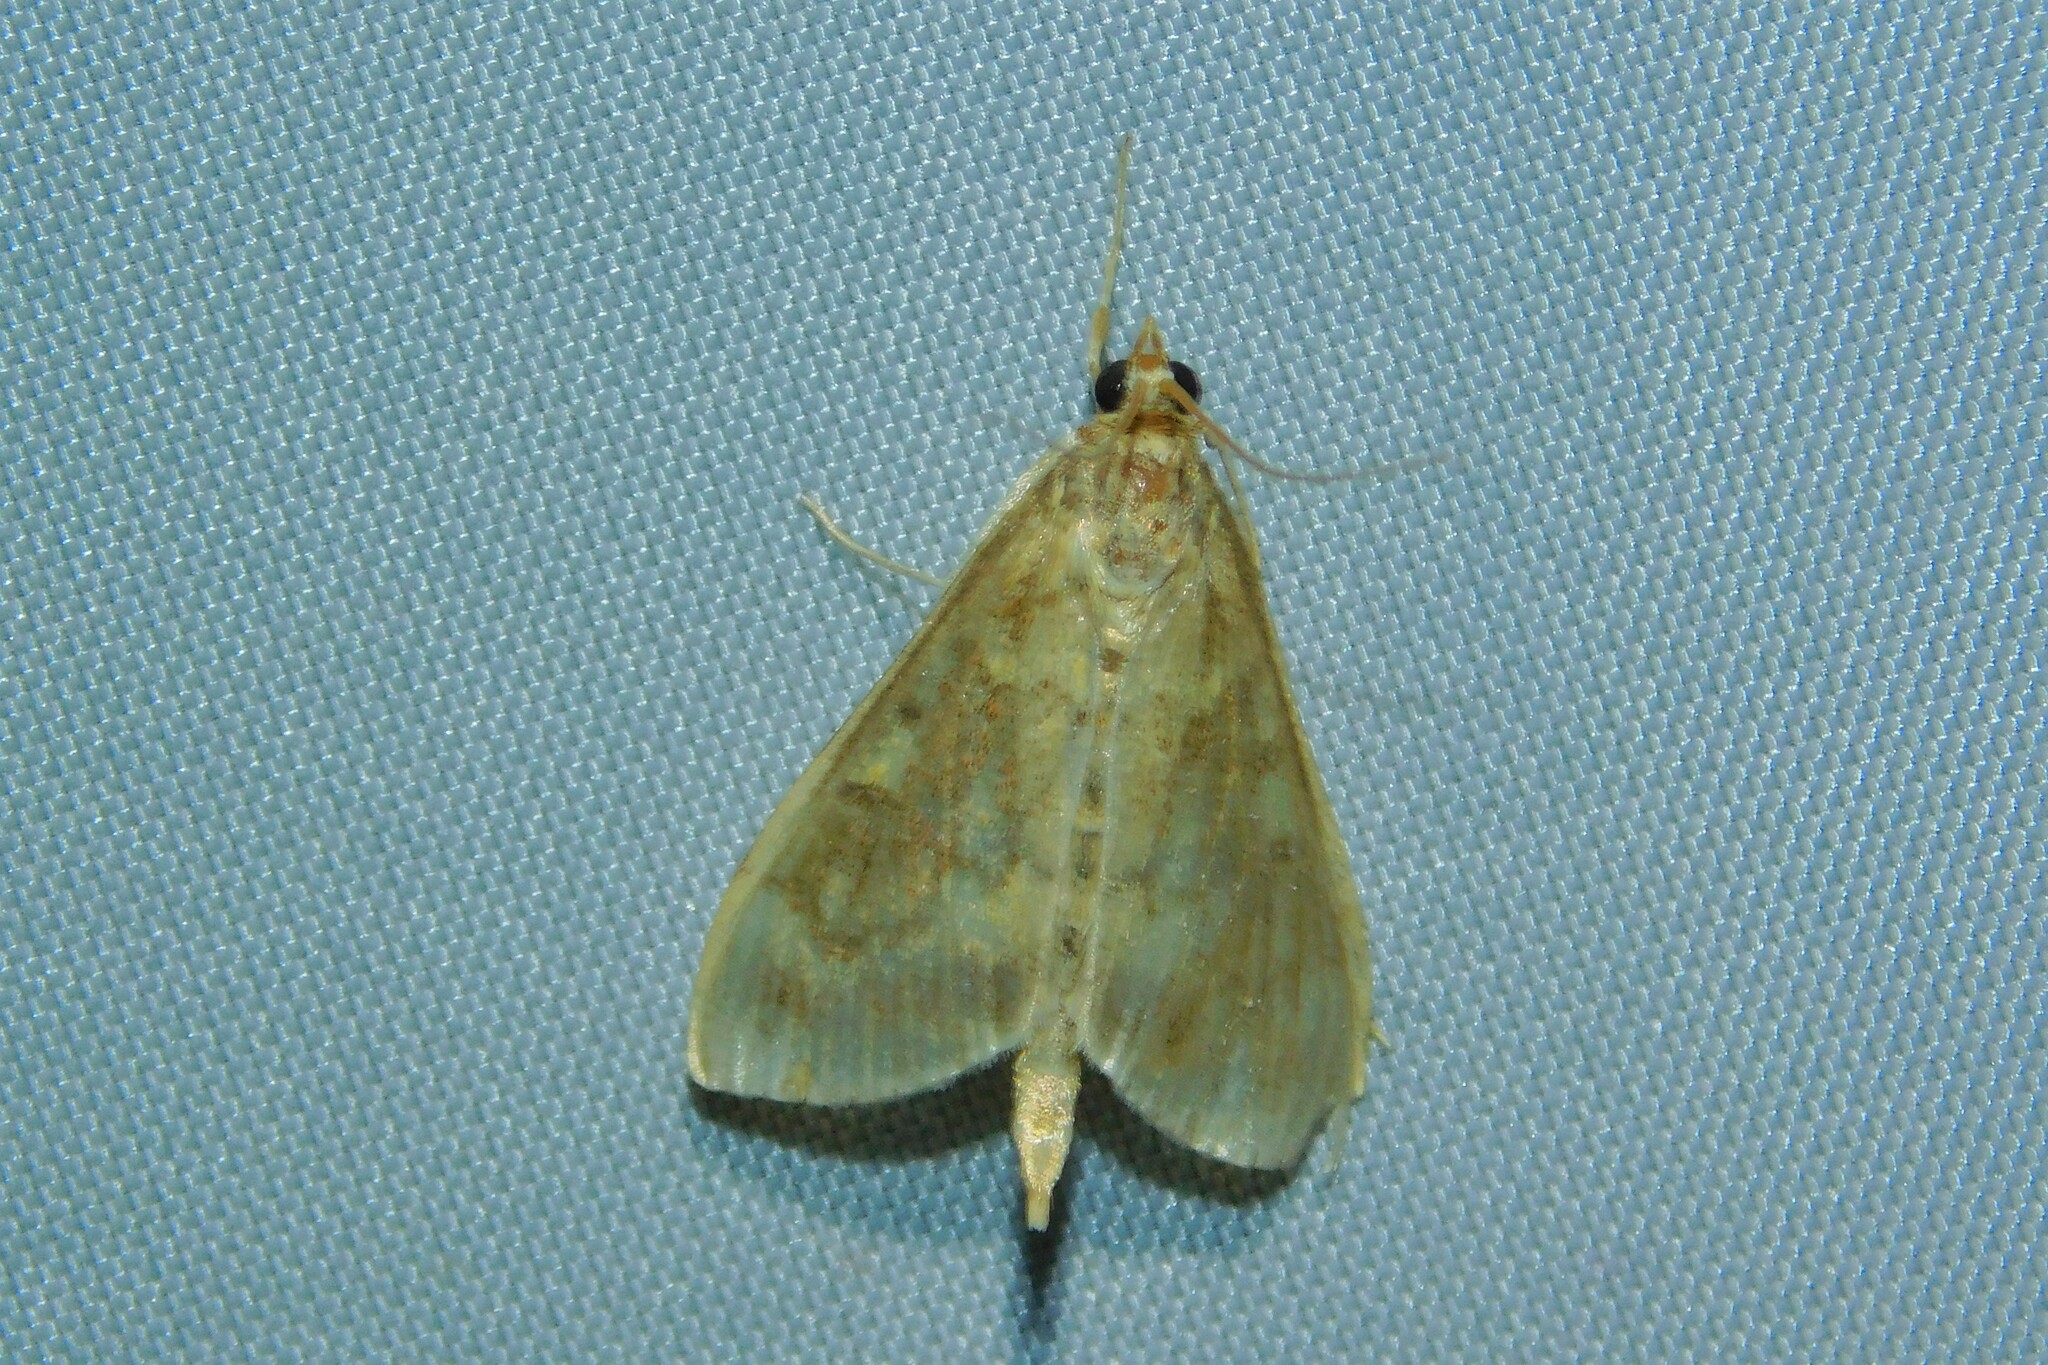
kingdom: Animalia
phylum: Arthropoda
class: Insecta
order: Lepidoptera
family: Crambidae
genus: Ostrinia
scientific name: Ostrinia nubilalis
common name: European corn borer
